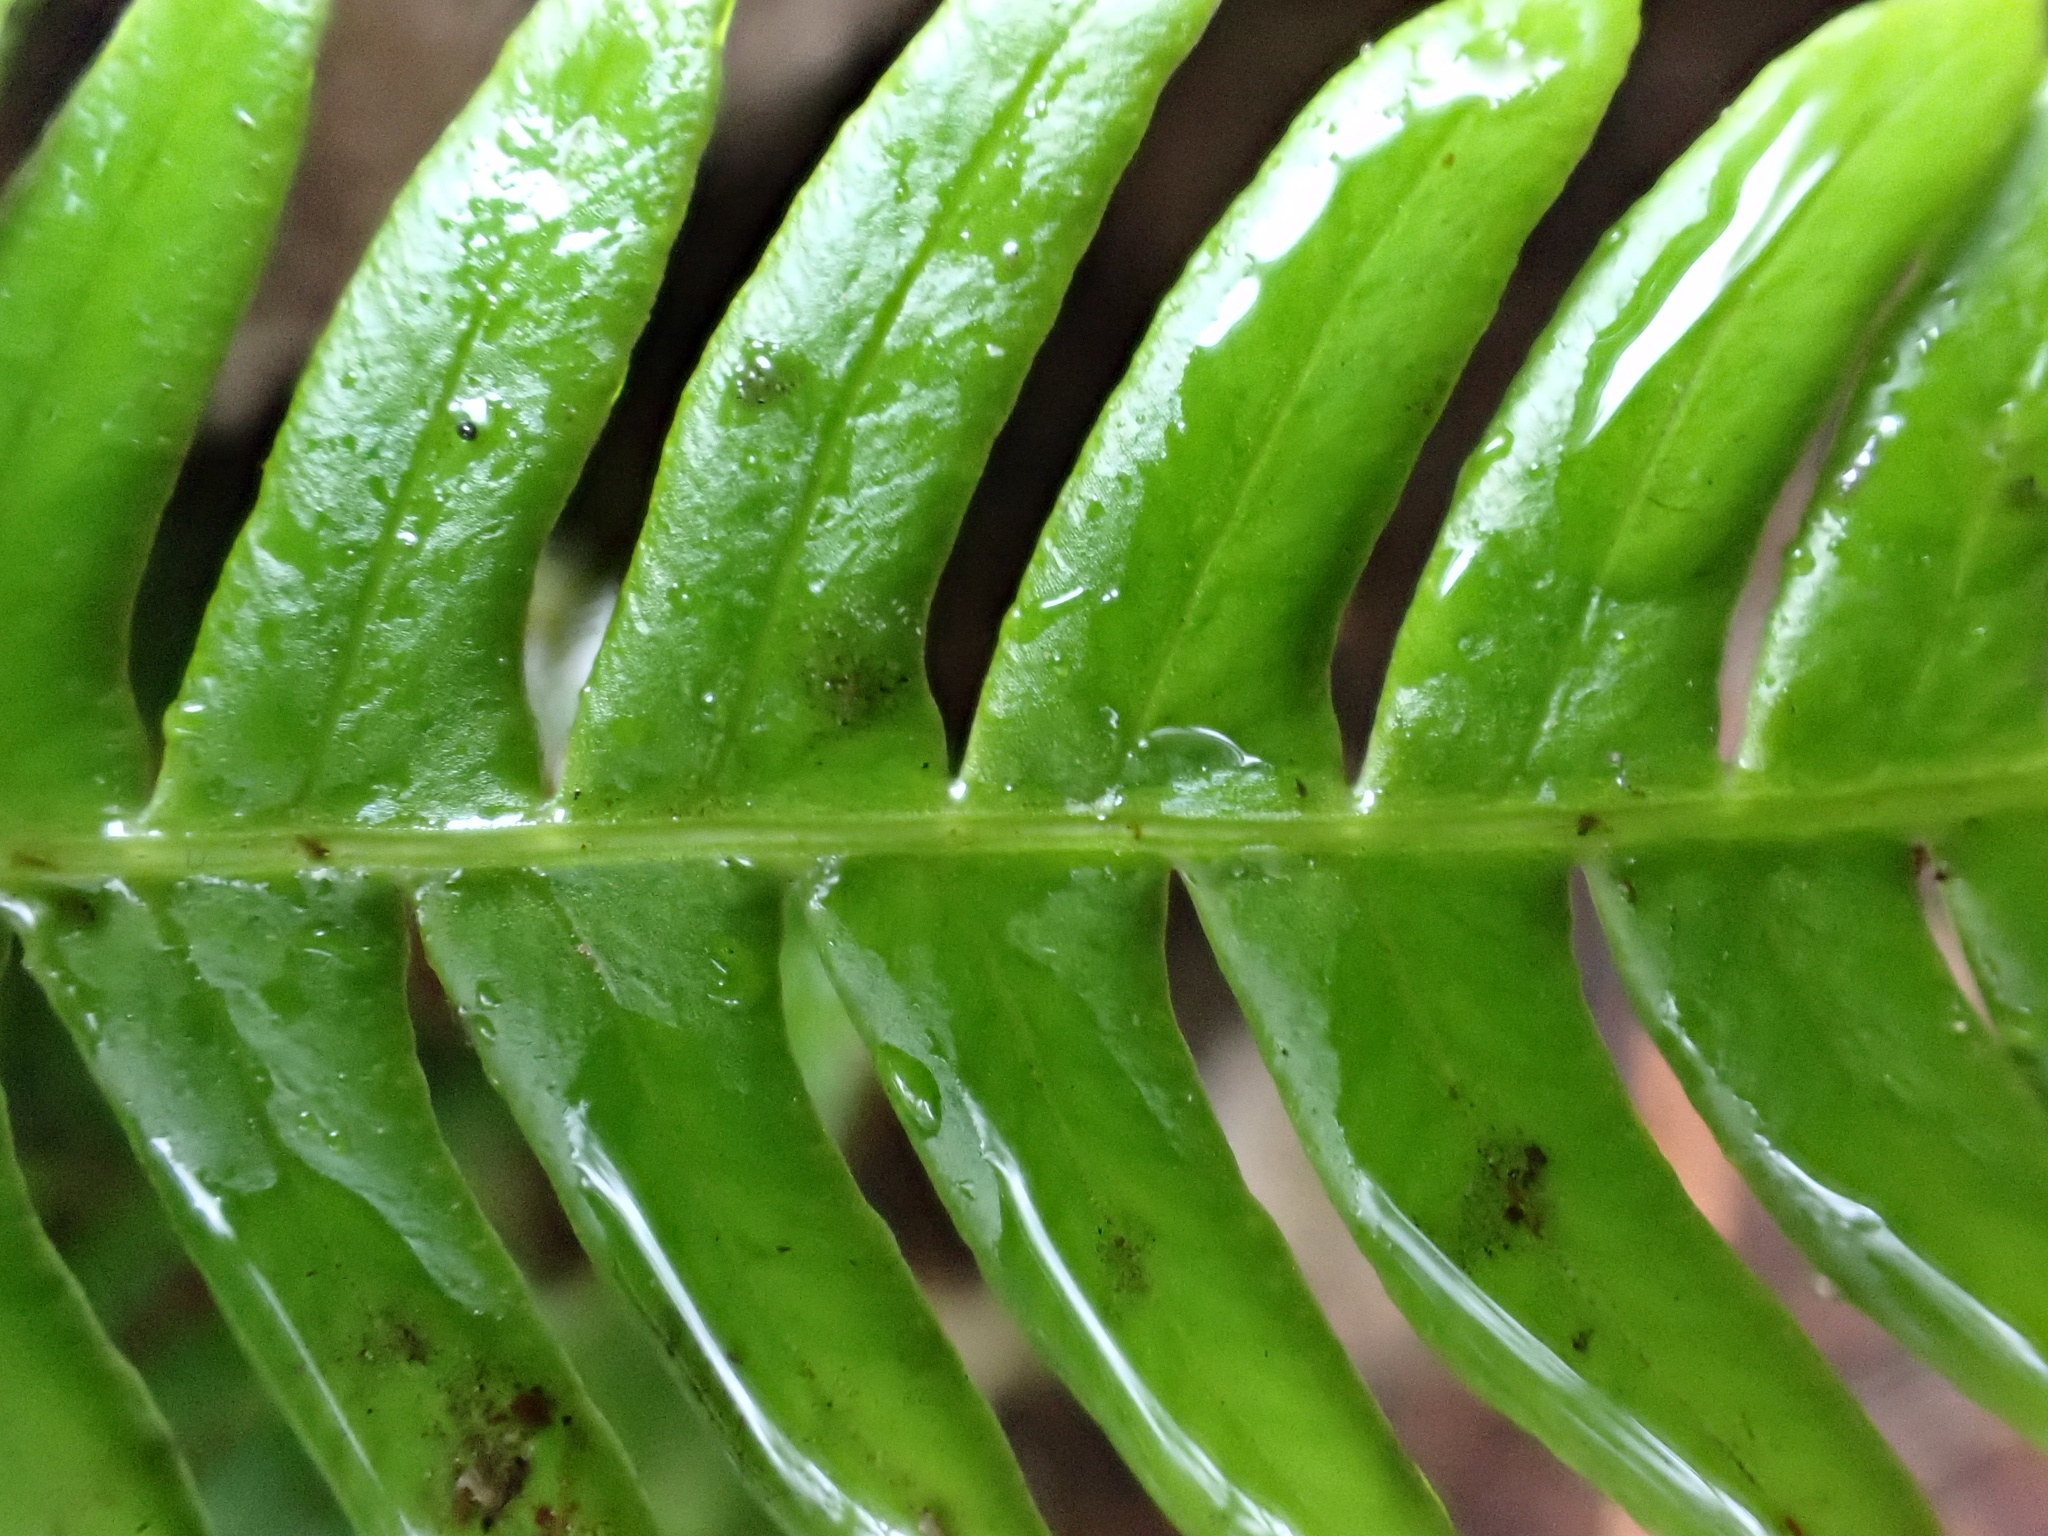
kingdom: Plantae
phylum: Tracheophyta
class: Polypodiopsida
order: Polypodiales
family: Blechnaceae
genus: Struthiopteris
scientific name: Struthiopteris spicant
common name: Deer fern
